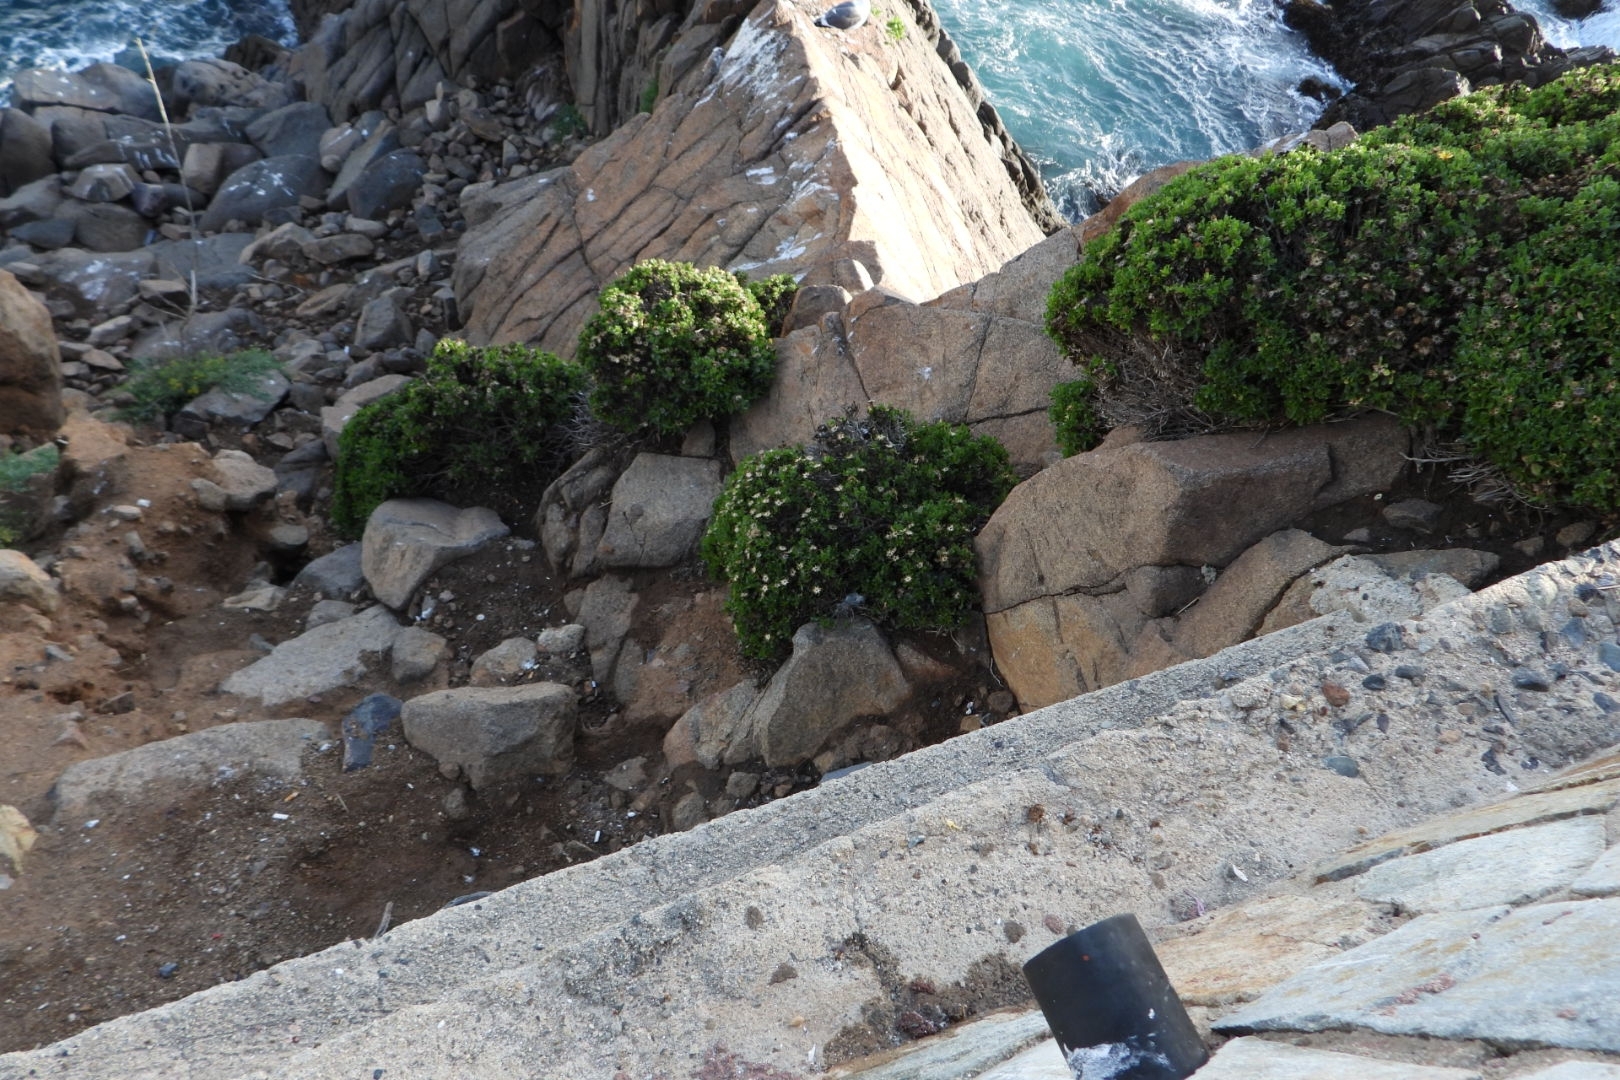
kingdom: Plantae
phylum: Tracheophyta
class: Magnoliopsida
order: Asterales
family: Asteraceae
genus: Hazardia
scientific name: Hazardia berberidis
